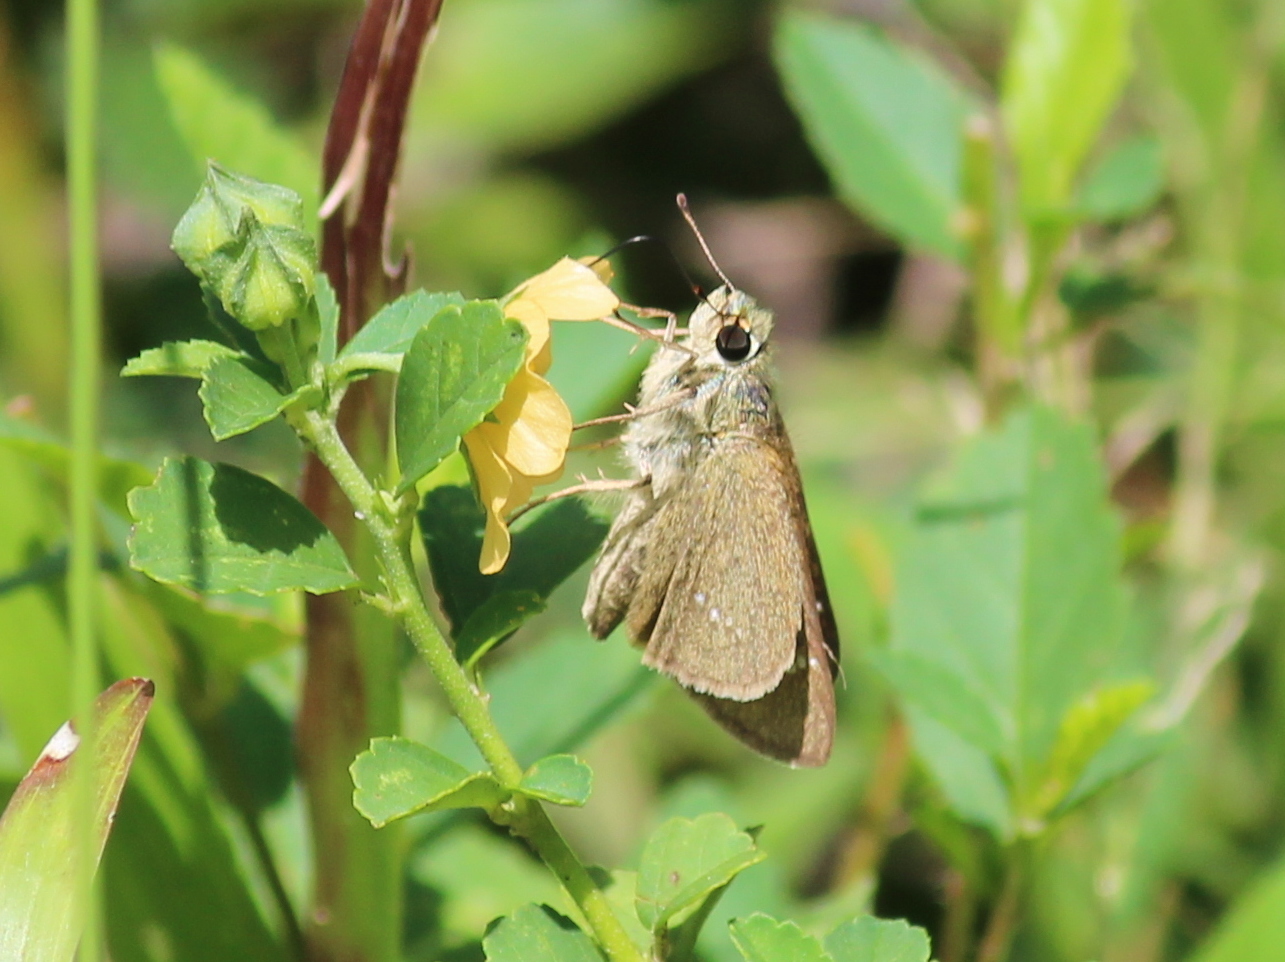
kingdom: Animalia
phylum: Arthropoda
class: Insecta
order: Lepidoptera
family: Hesperiidae
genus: Parnara
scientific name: Parnara naso
